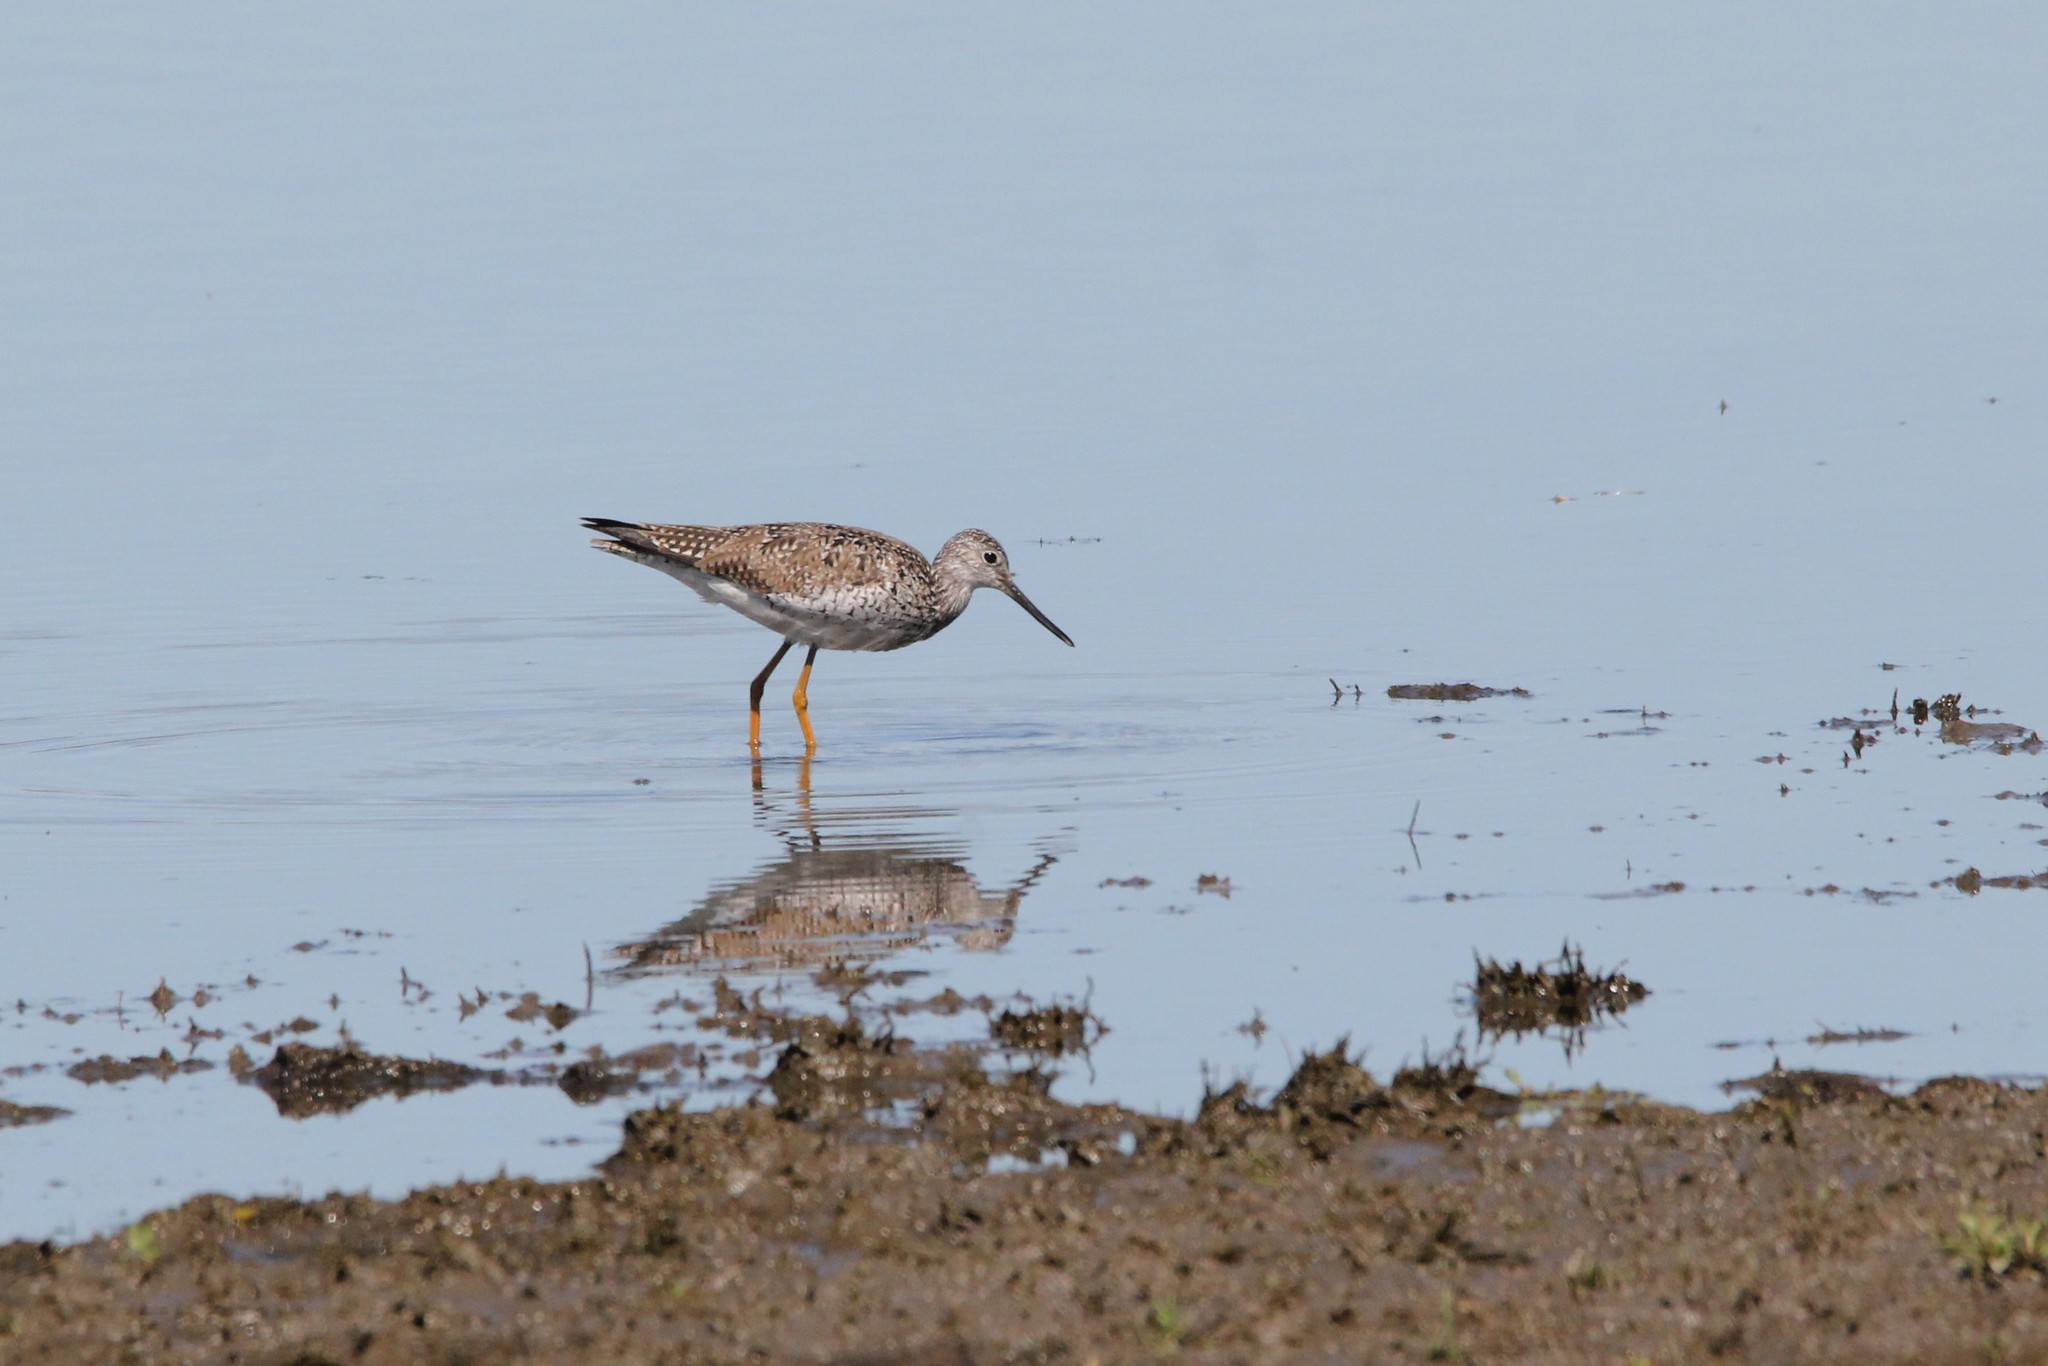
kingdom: Animalia
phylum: Chordata
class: Aves
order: Charadriiformes
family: Scolopacidae
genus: Tringa
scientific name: Tringa melanoleuca
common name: Greater yellowlegs
